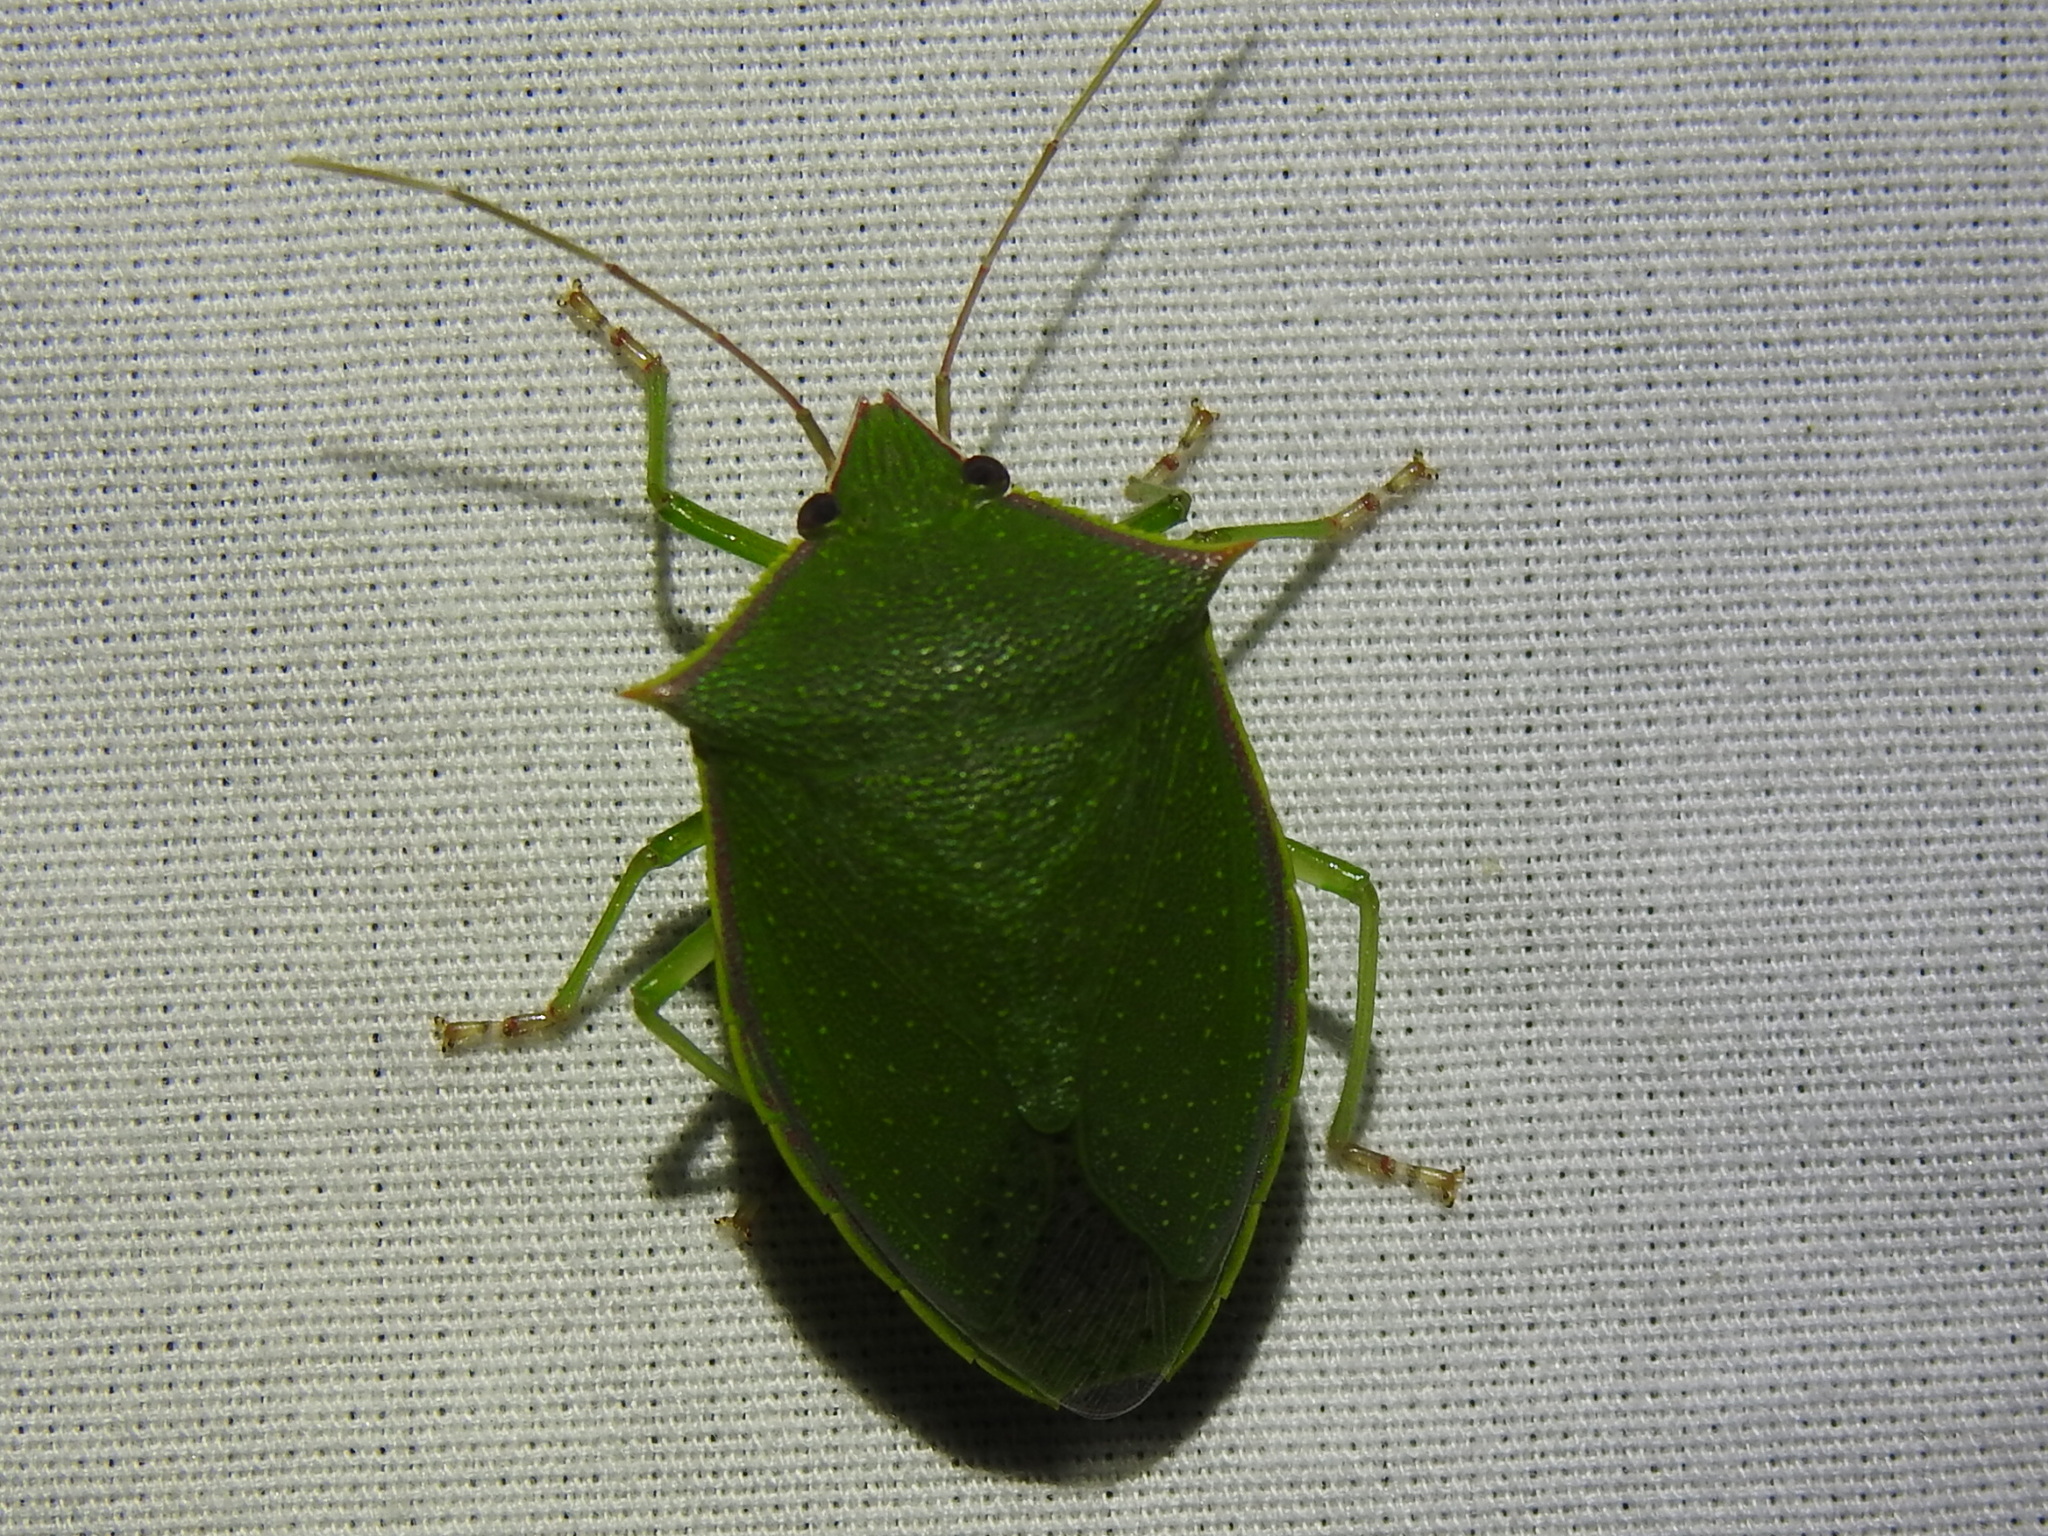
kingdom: Animalia
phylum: Arthropoda
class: Insecta
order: Hemiptera
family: Pentatomidae
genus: Loxa
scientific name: Loxa flavicollis
